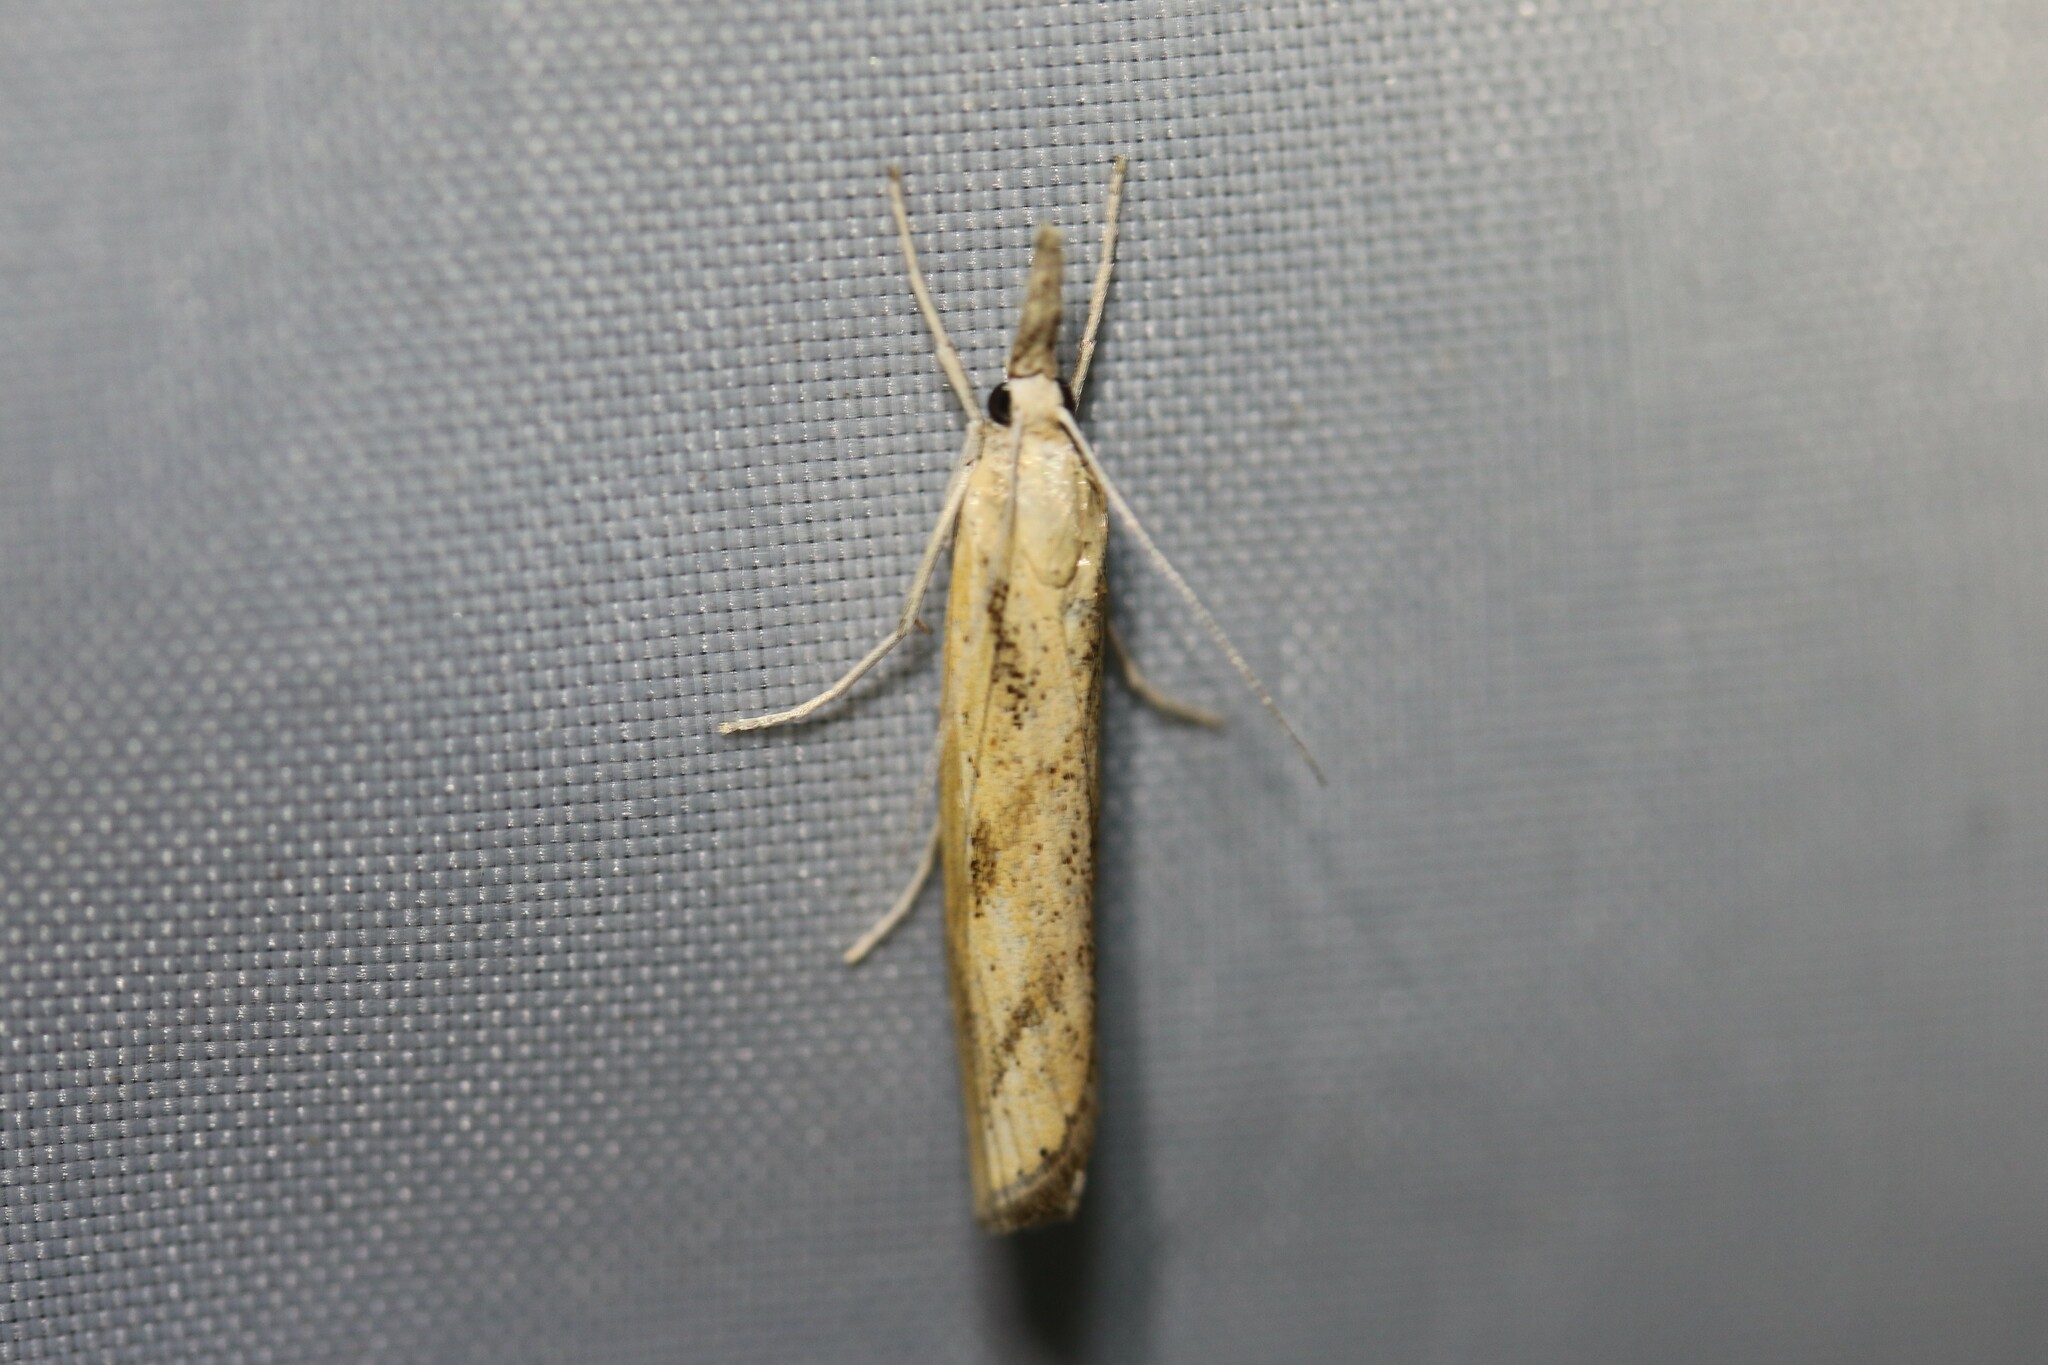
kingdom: Animalia
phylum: Arthropoda
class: Insecta
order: Lepidoptera
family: Crambidae
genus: Agriphila
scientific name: Agriphila inquinatella
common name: Barred grass-veneer
